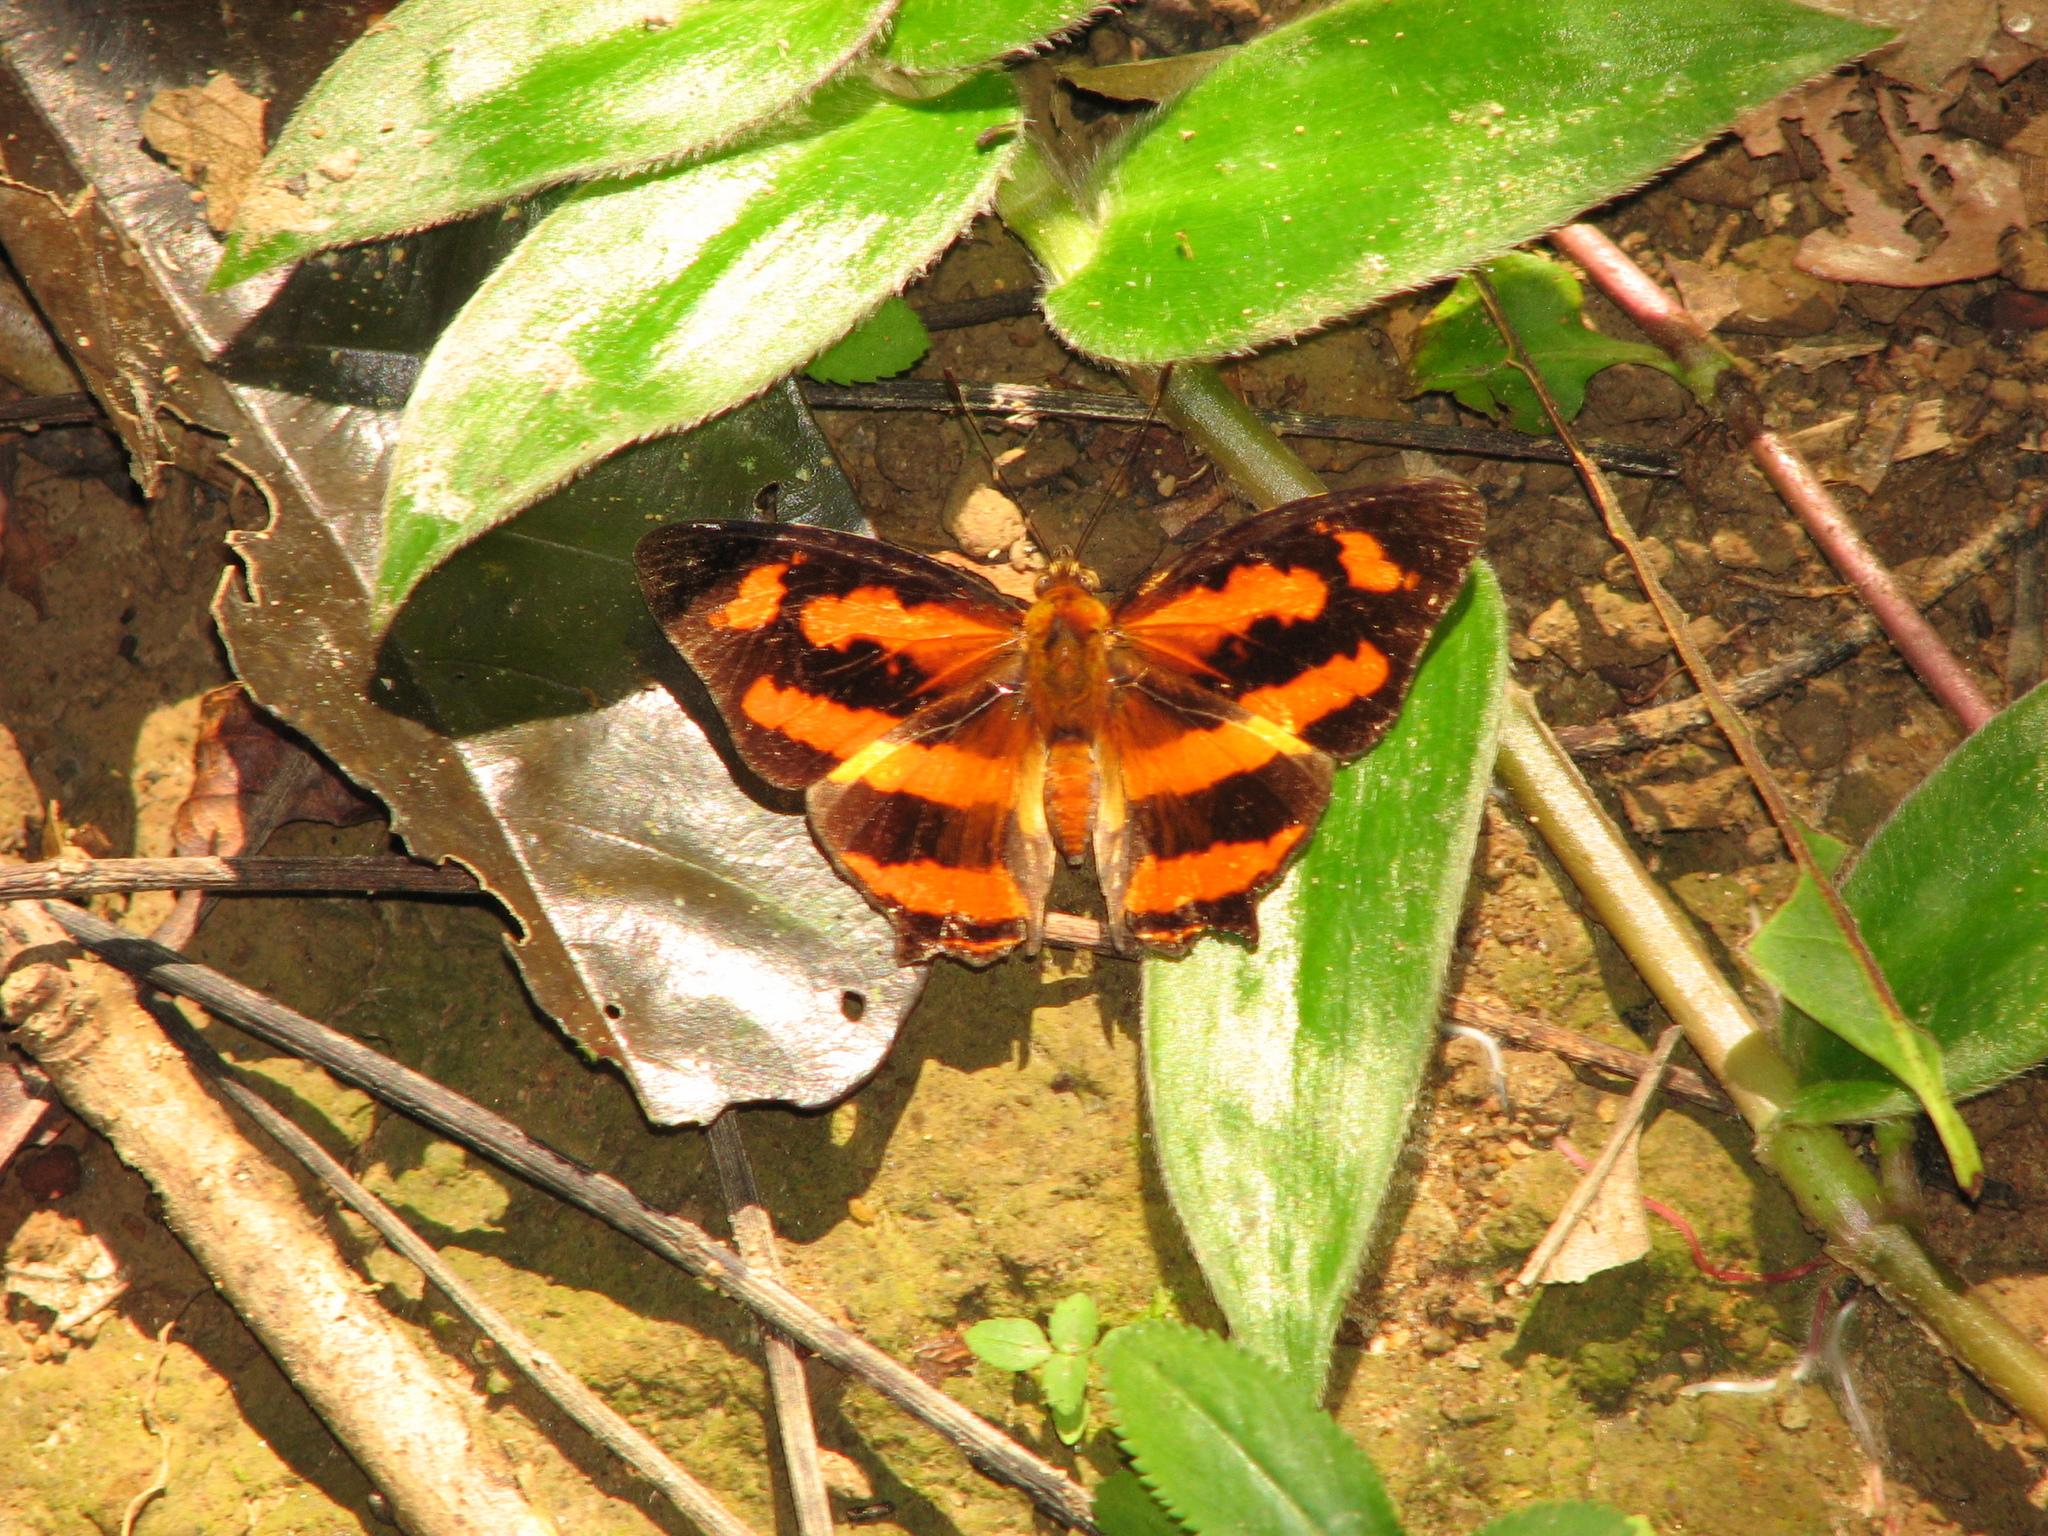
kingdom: Animalia
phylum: Arthropoda
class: Insecta
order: Lepidoptera
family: Nymphalidae
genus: Symbrenthia
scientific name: Symbrenthia hypselis
